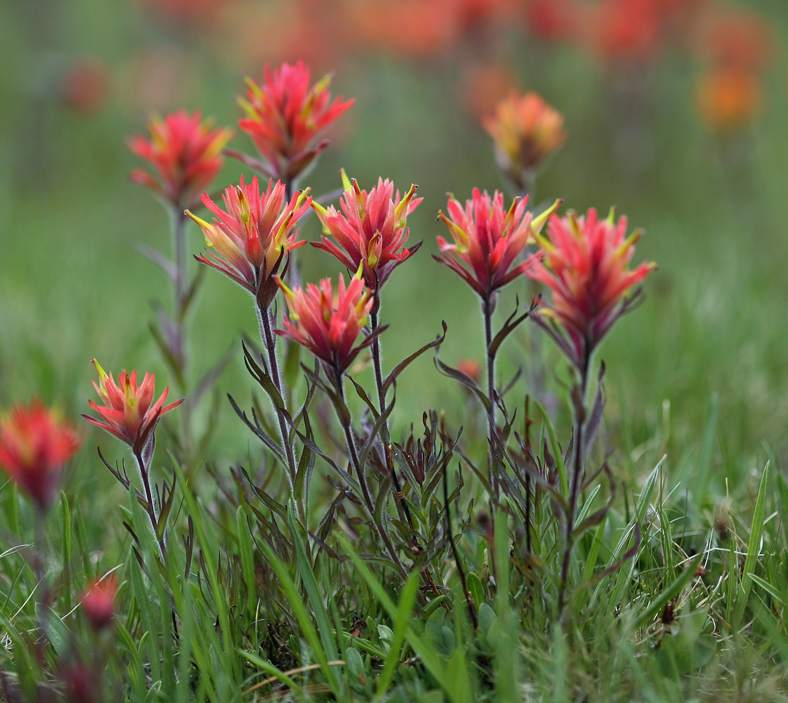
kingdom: Plantae
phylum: Tracheophyta
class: Magnoliopsida
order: Lamiales
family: Orobanchaceae
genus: Castilleja
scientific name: Castilleja peirsonii
